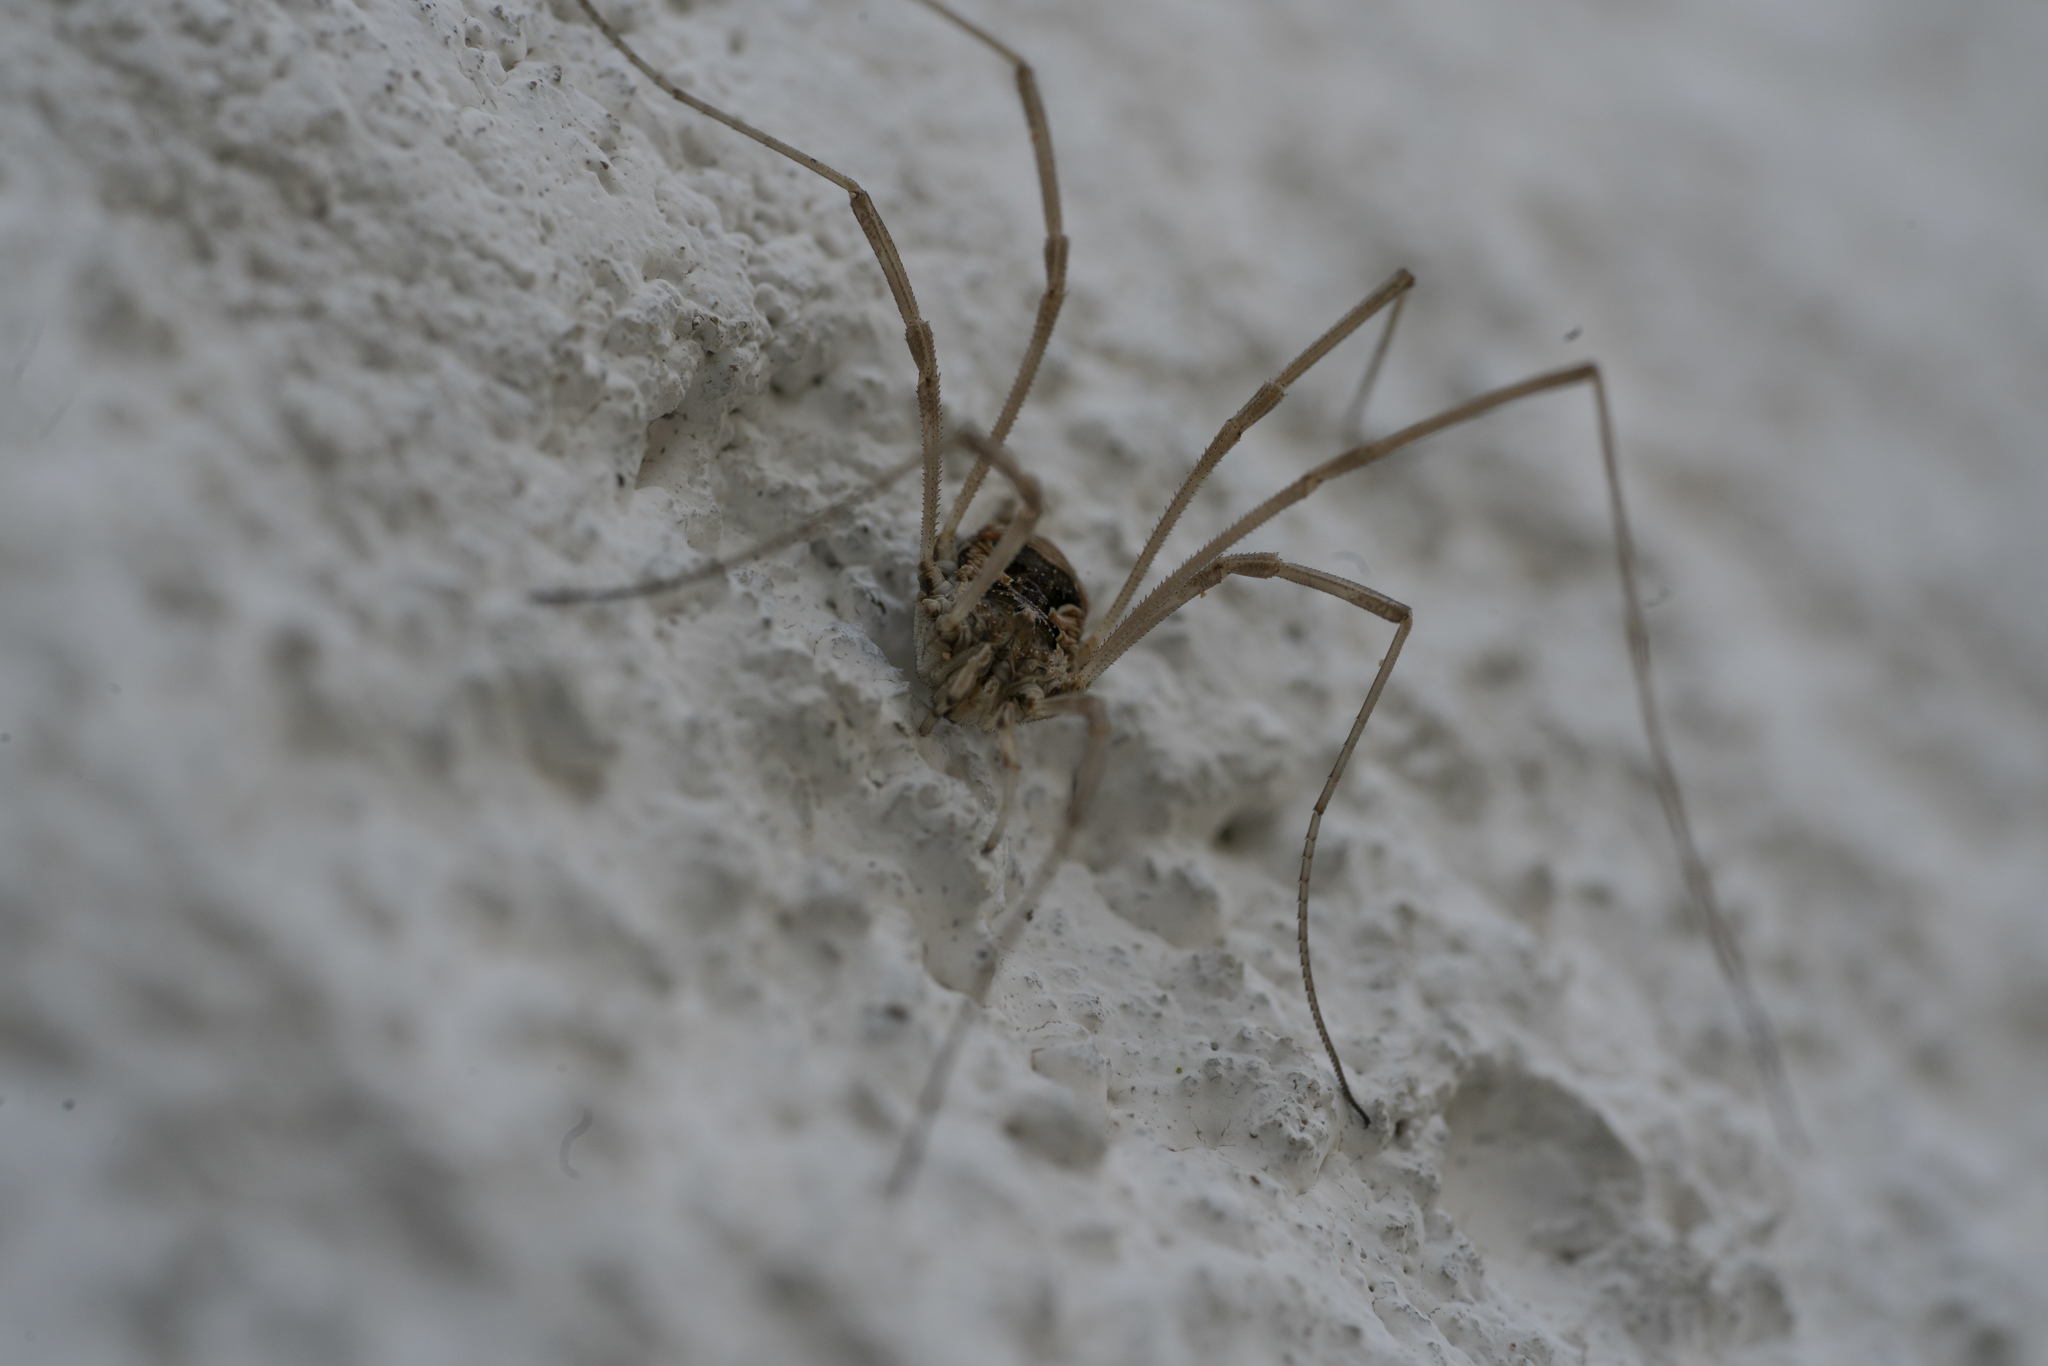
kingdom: Animalia
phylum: Arthropoda
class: Arachnida
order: Opiliones
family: Phalangiidae
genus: Metaphalangium
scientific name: Metaphalangium cirtanum
